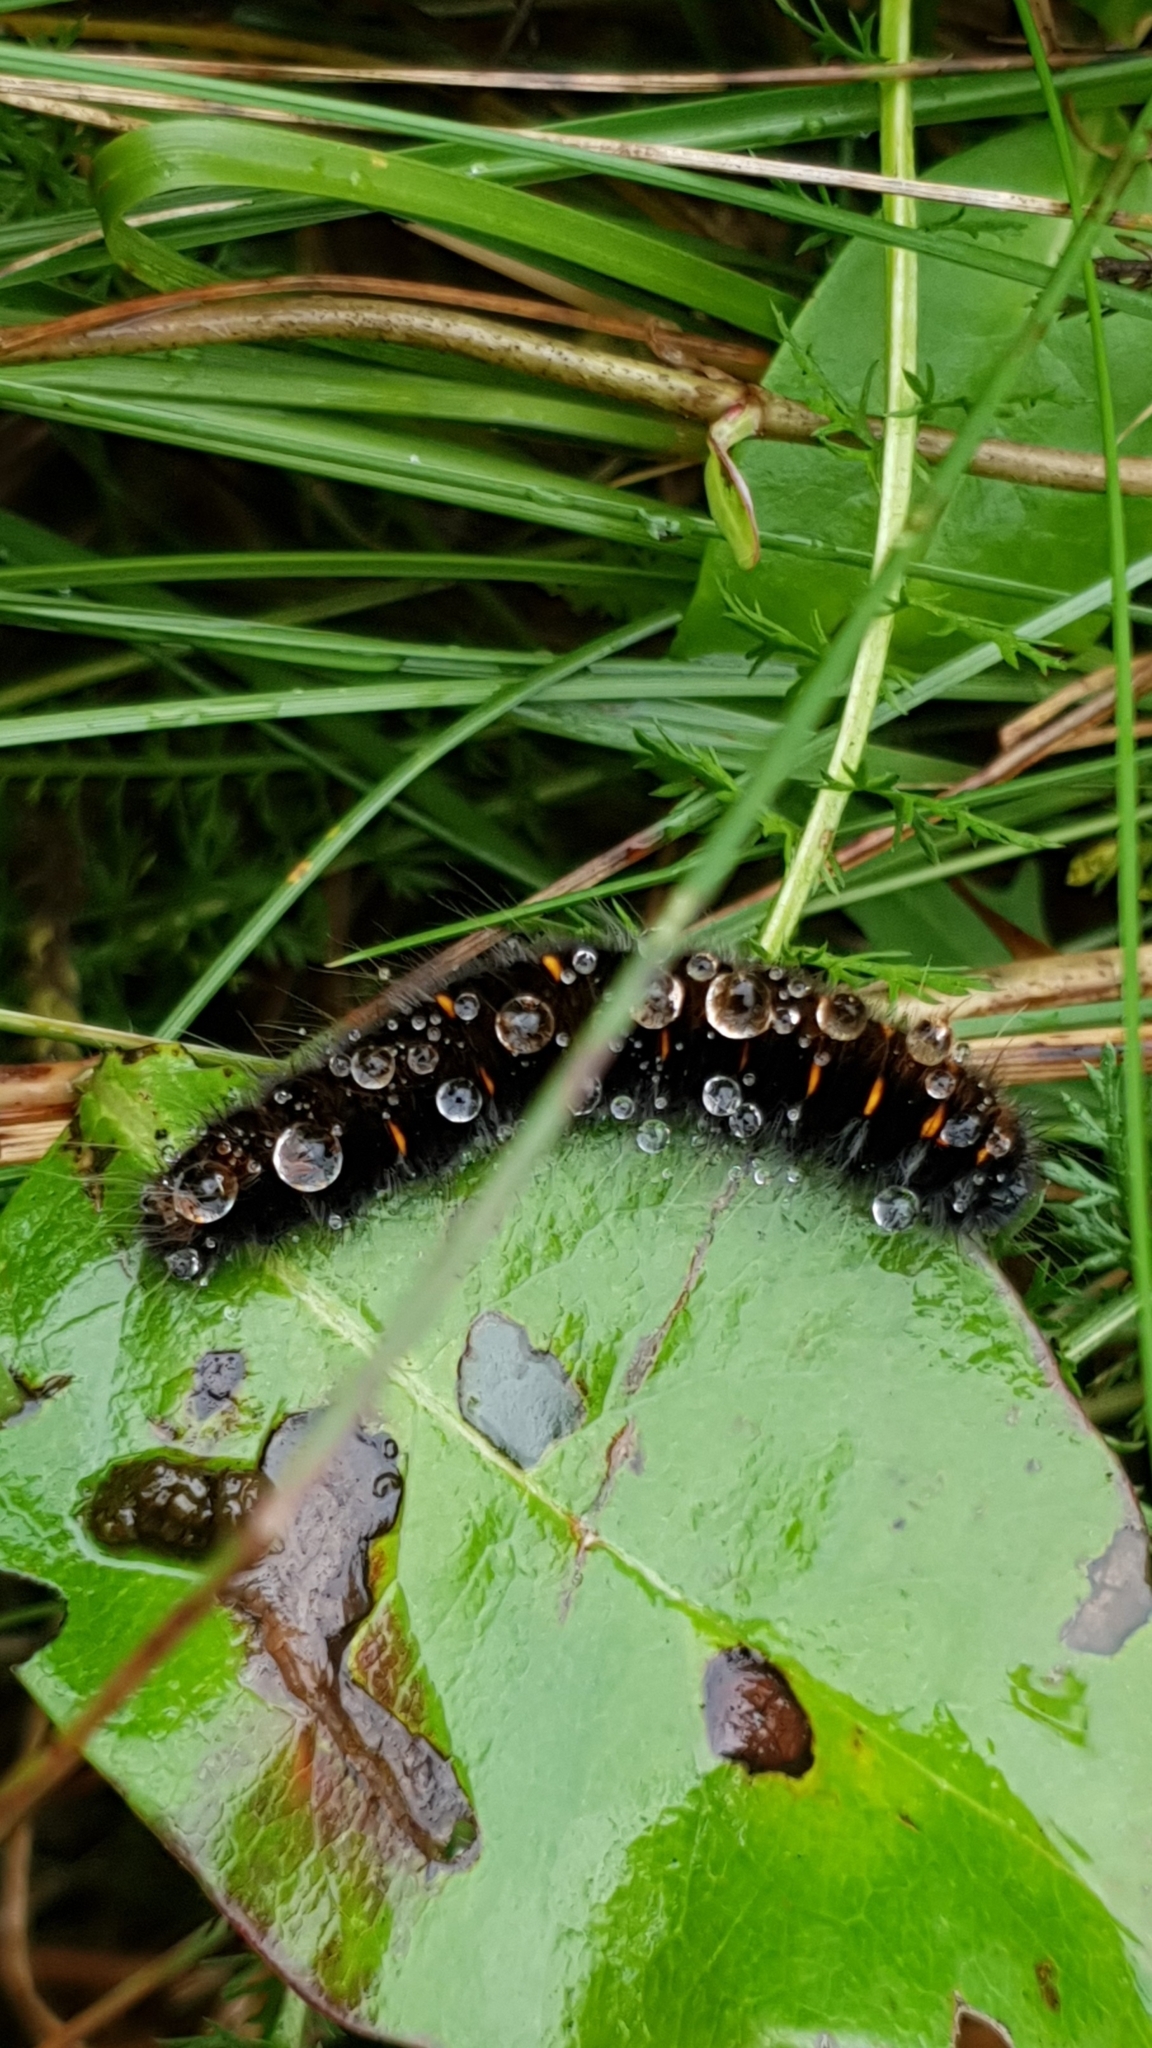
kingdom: Animalia
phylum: Arthropoda
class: Insecta
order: Lepidoptera
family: Lasiocampidae
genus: Macrothylacia
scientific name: Macrothylacia rubi
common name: Fox moth
